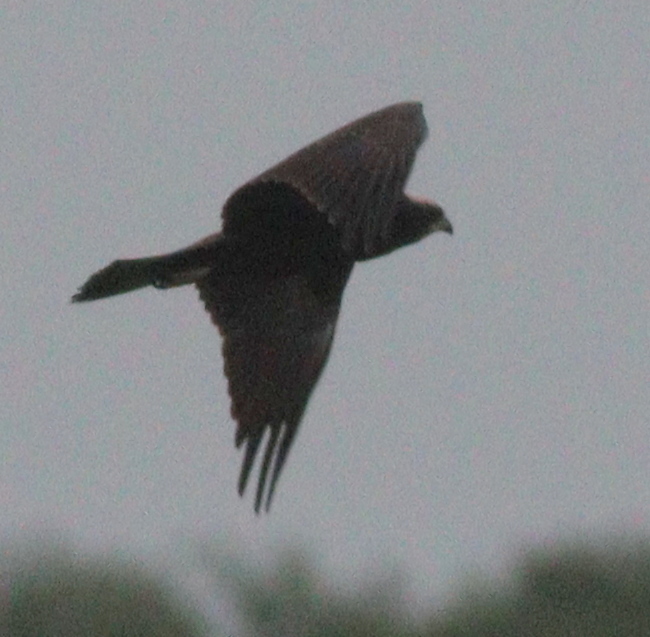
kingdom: Animalia
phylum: Chordata
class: Aves
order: Accipitriformes
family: Accipitridae
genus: Circus
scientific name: Circus aeruginosus
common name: Western marsh harrier
